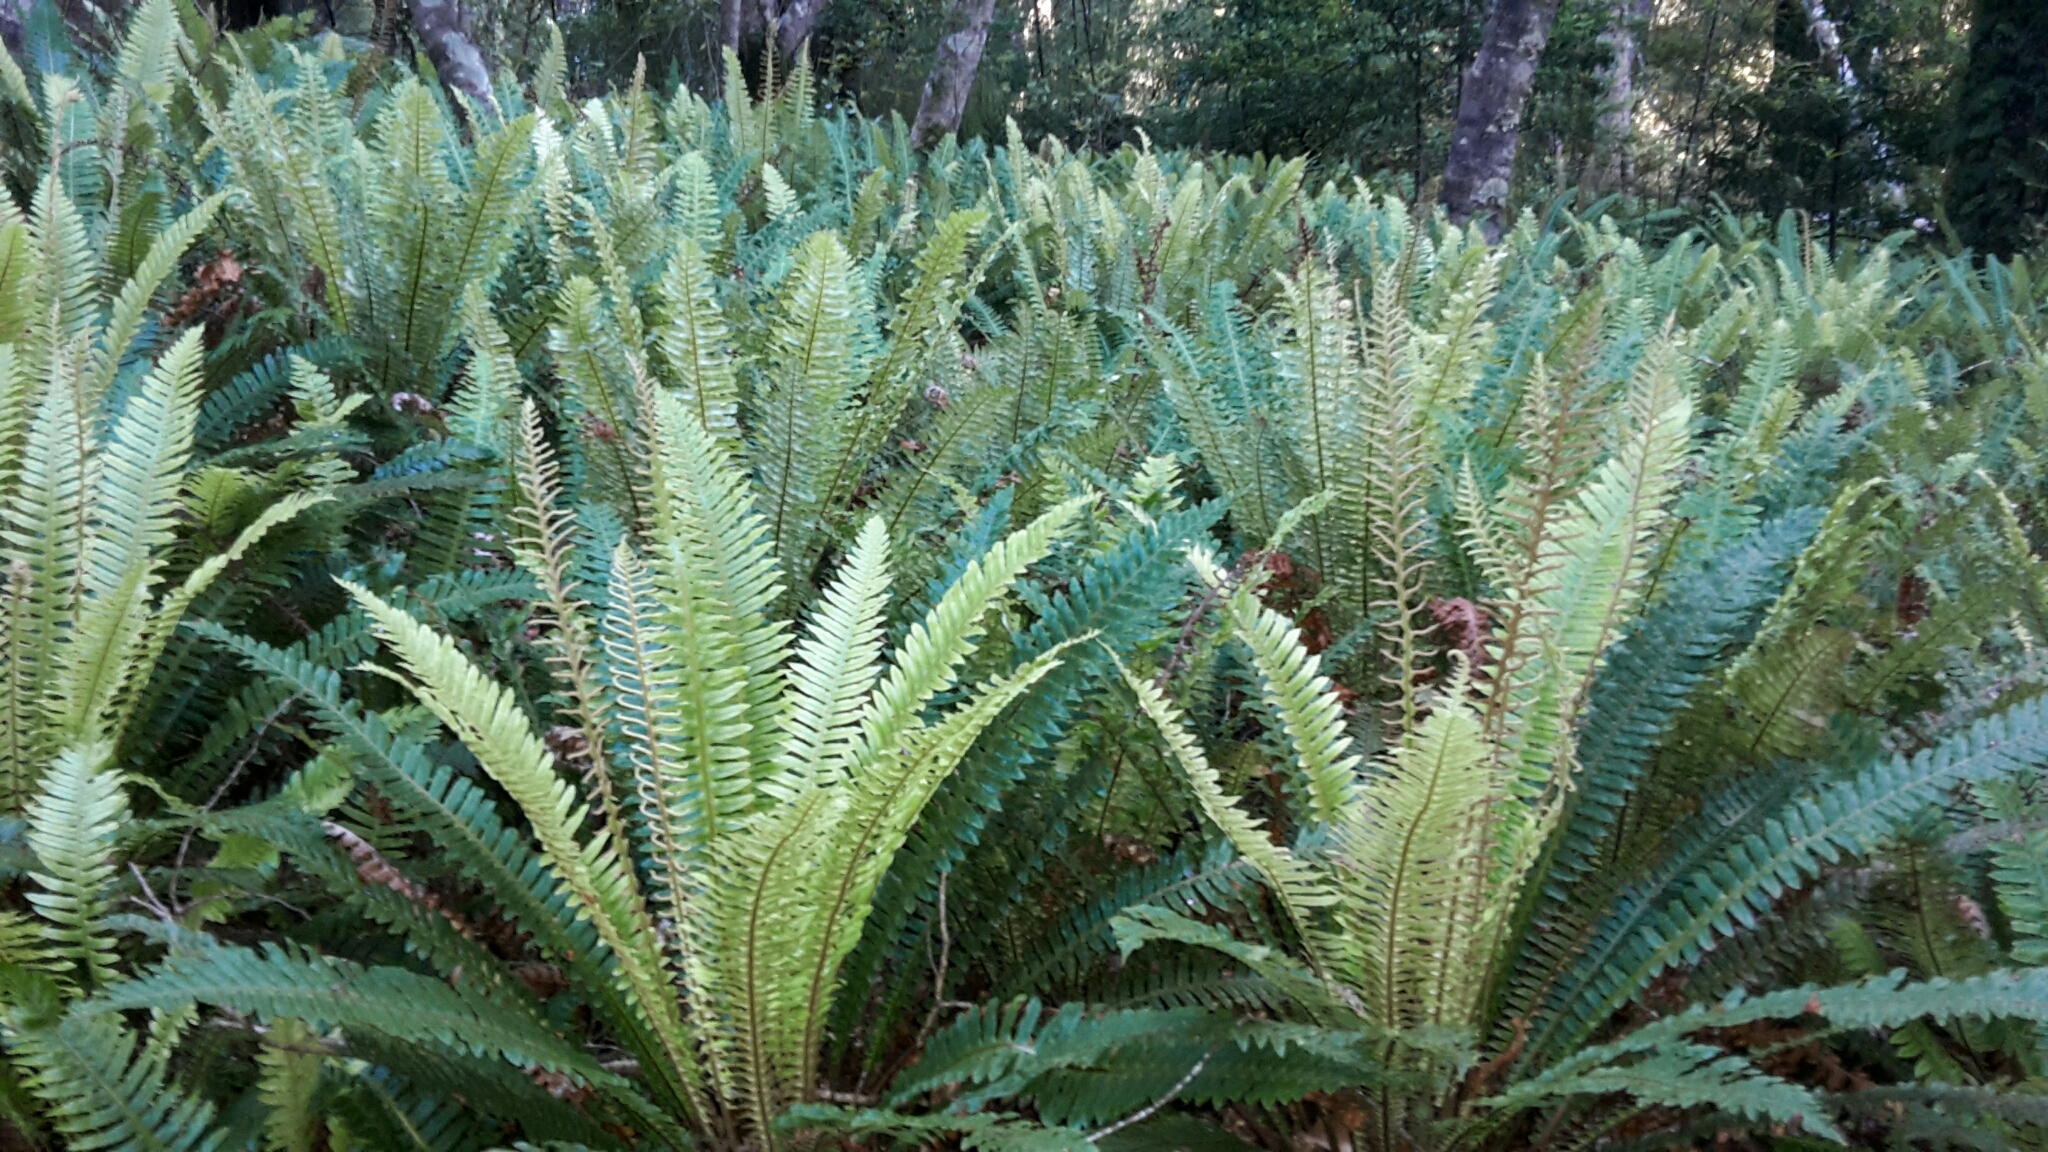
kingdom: Plantae
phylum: Tracheophyta
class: Polypodiopsida
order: Polypodiales
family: Blechnaceae
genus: Lomaria
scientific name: Lomaria discolor
